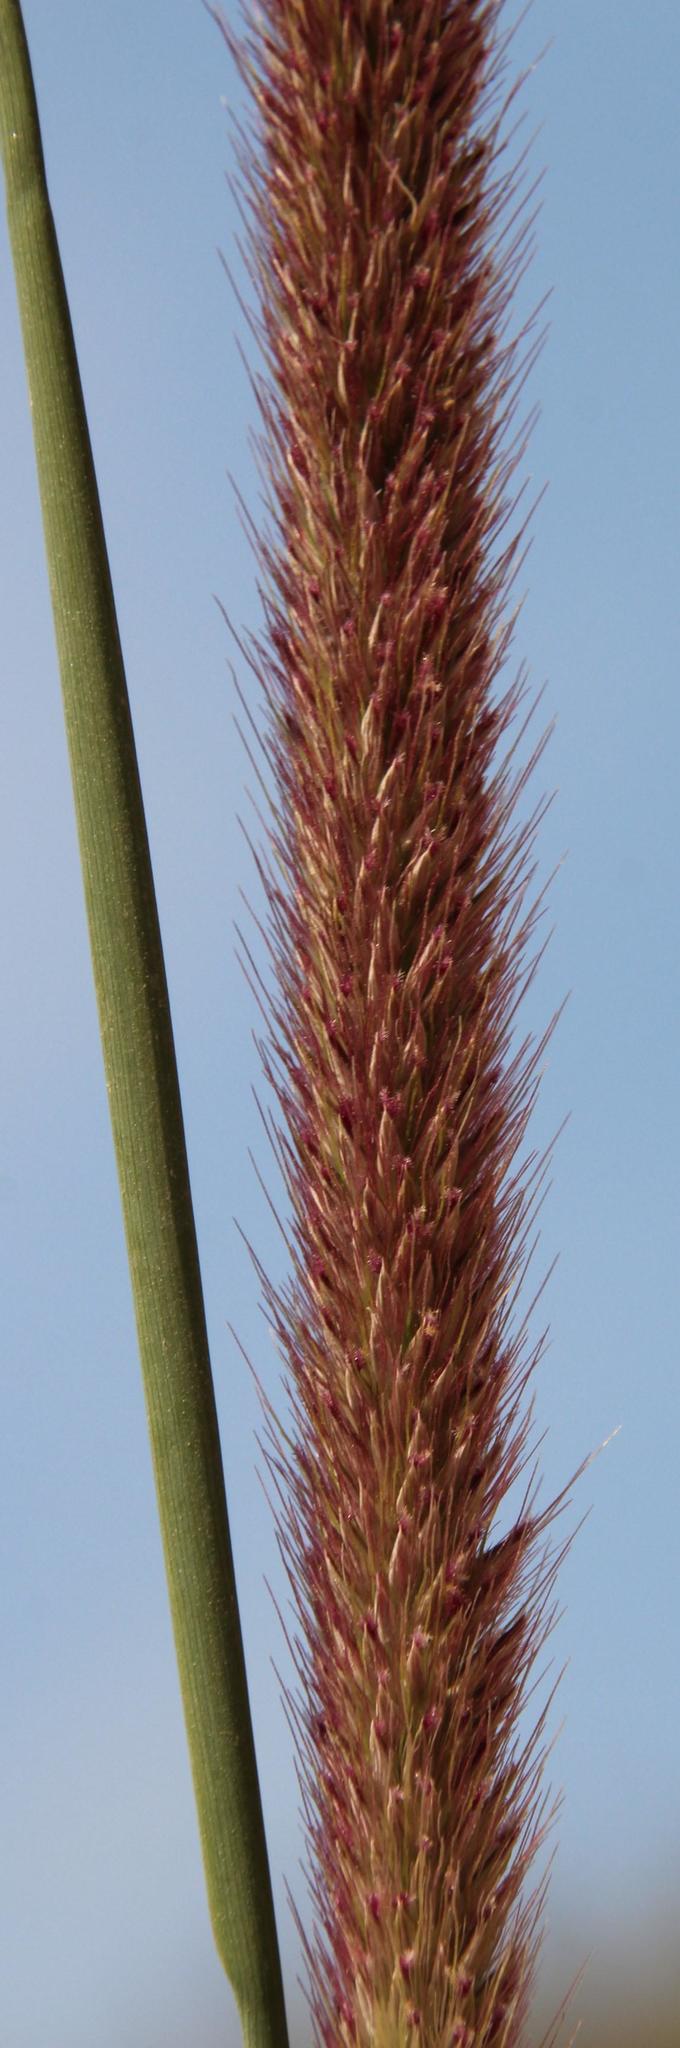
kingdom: Plantae
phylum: Tracheophyta
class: Liliopsida
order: Poales
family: Poaceae
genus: Cenchrus
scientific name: Cenchrus caudatus
